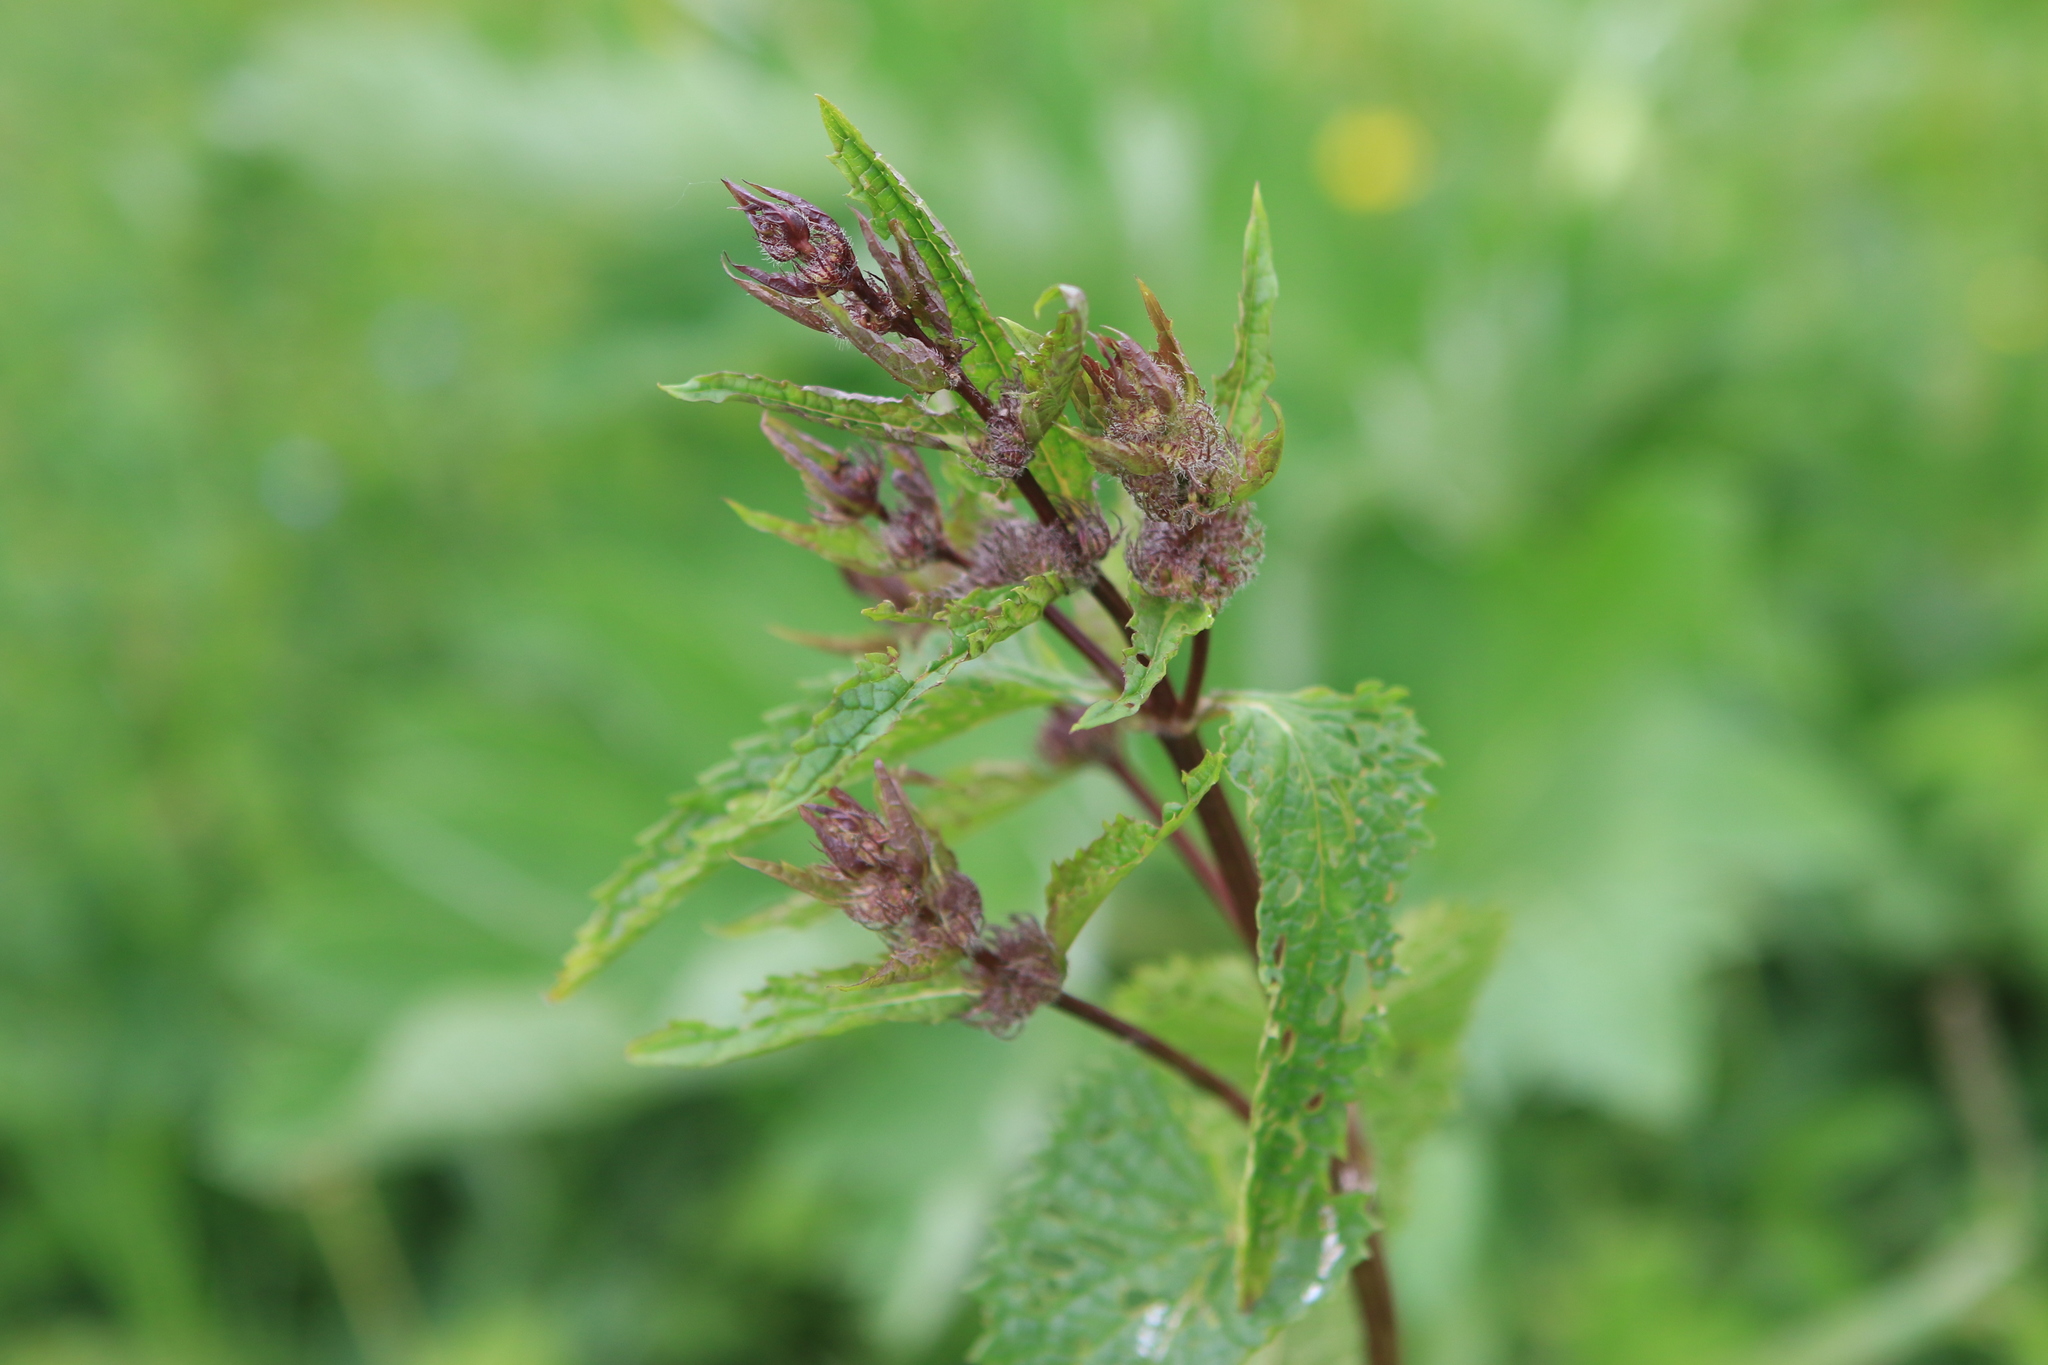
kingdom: Plantae
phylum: Tracheophyta
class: Magnoliopsida
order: Lamiales
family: Lamiaceae
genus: Phlomoides
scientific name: Phlomoides tuberosa
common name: Tuberous jerusalem sage
